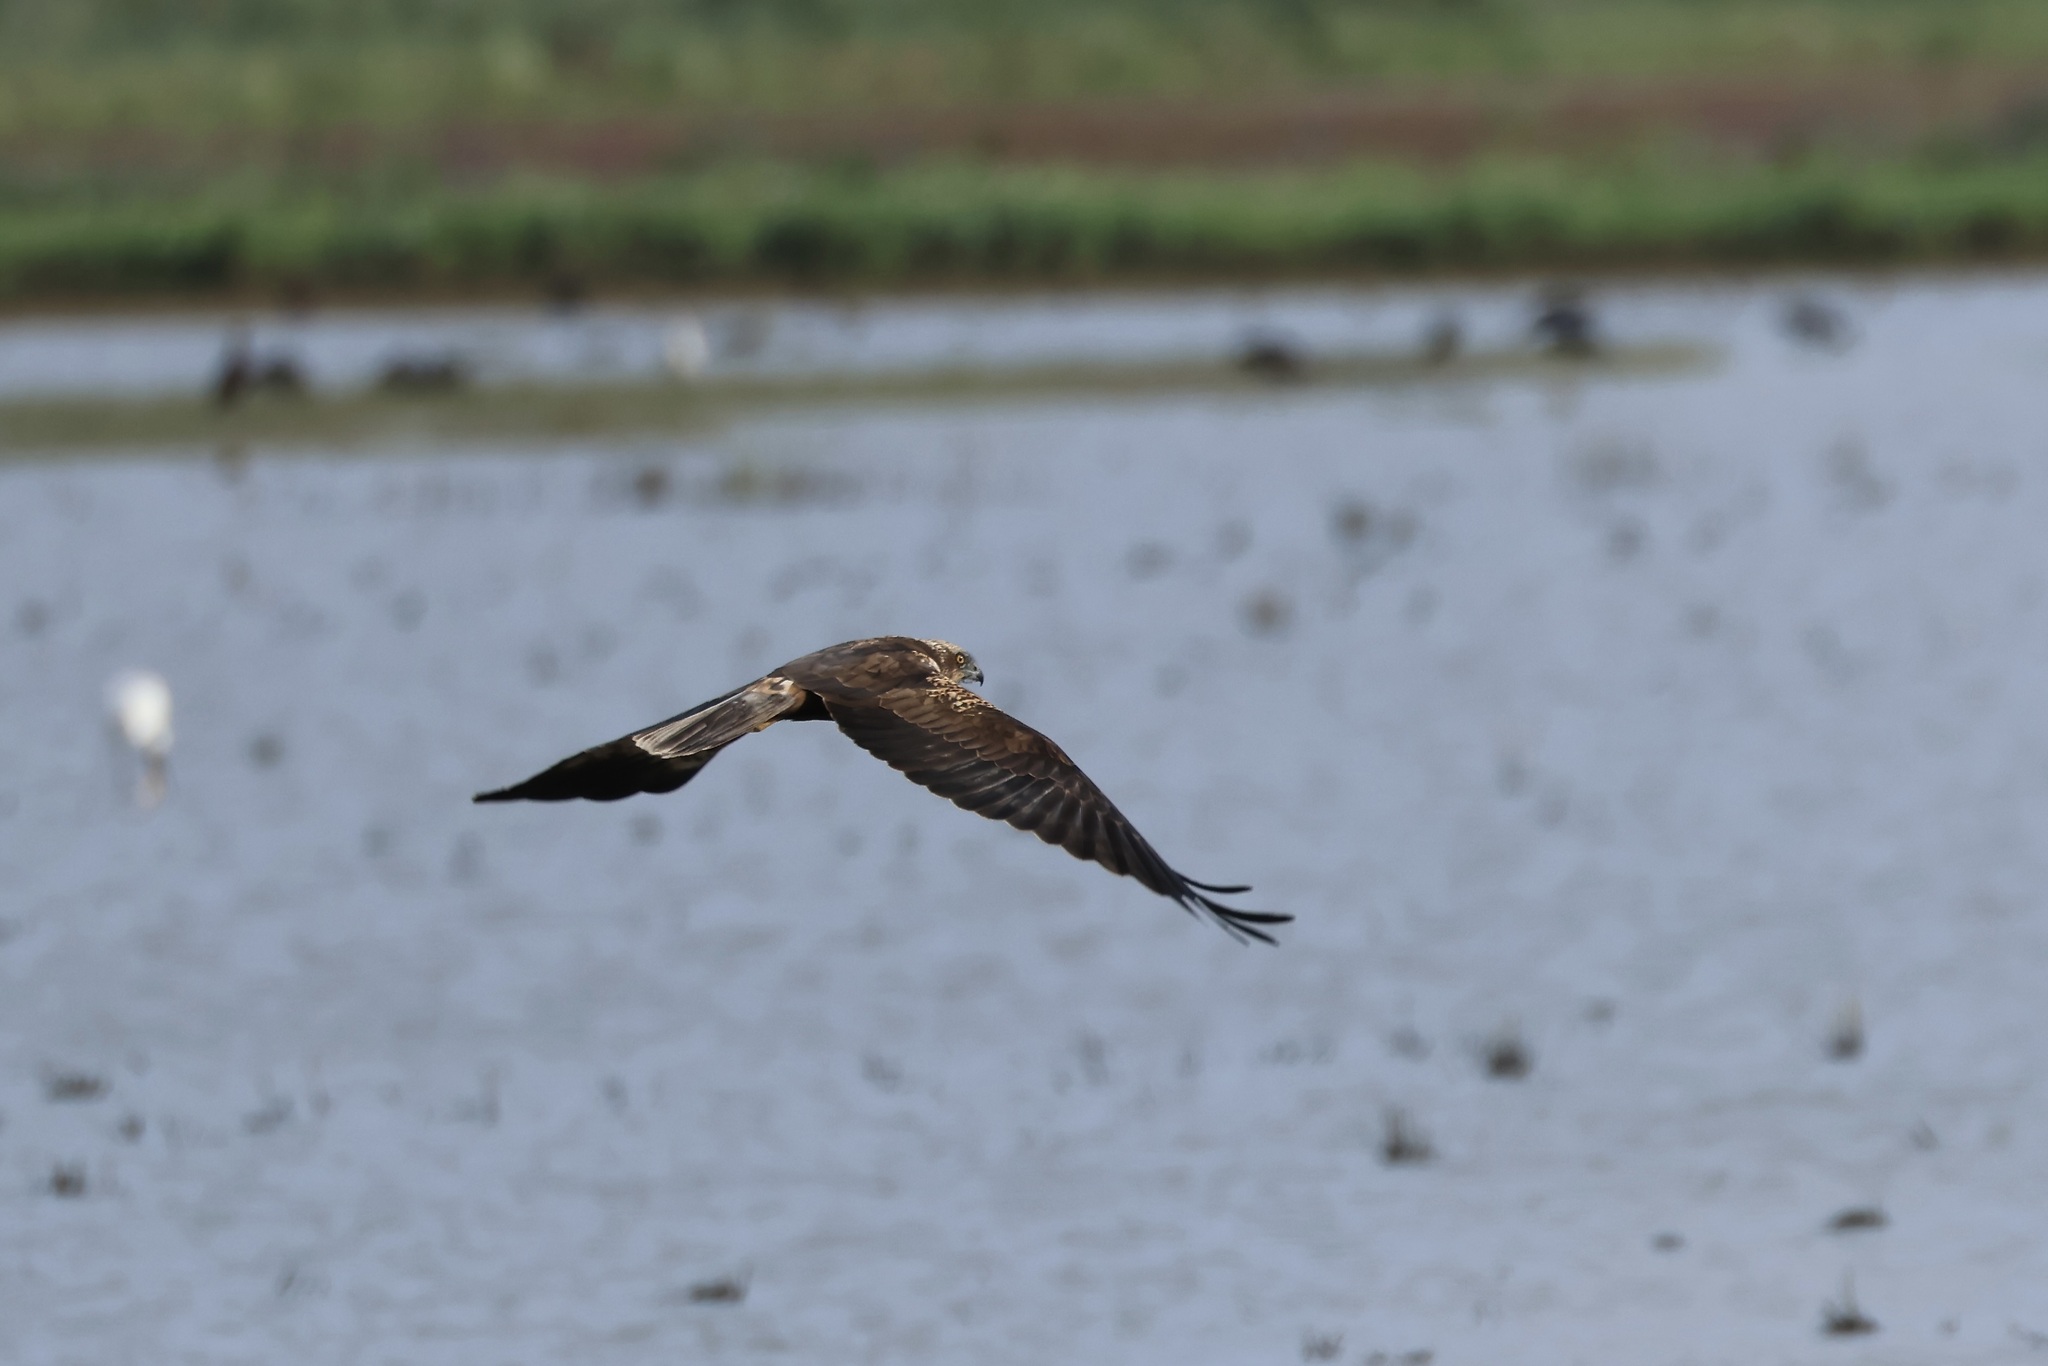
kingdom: Animalia
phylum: Chordata
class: Aves
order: Accipitriformes
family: Accipitridae
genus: Circus
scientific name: Circus aeruginosus
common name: Western marsh harrier
